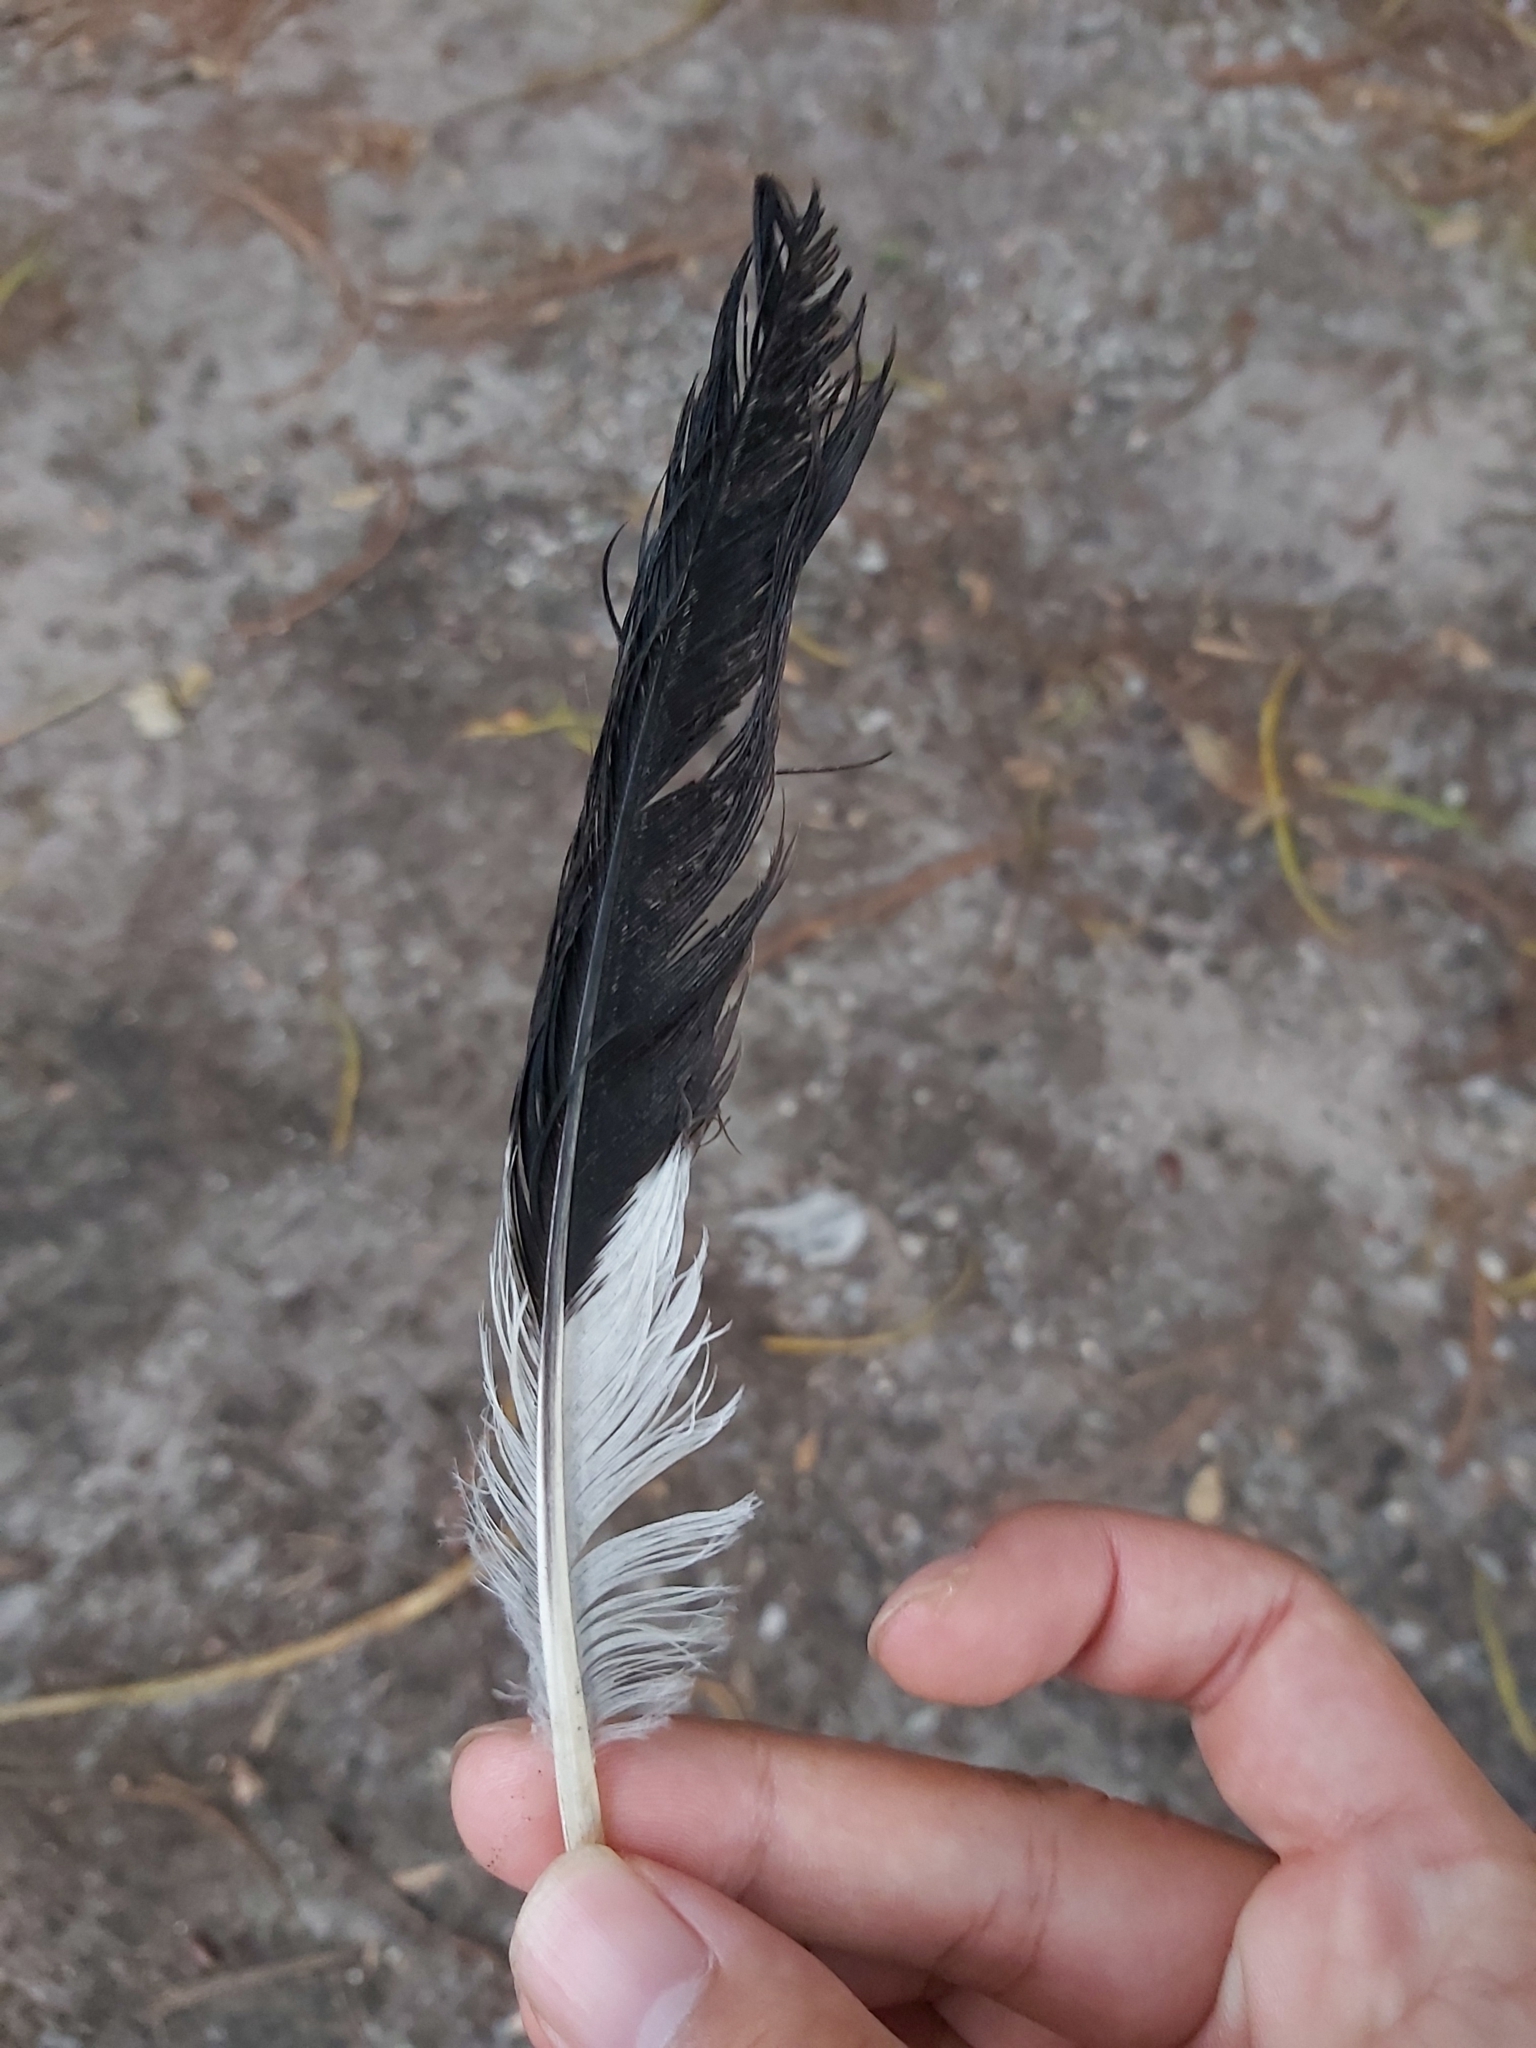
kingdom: Animalia
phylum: Chordata
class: Aves
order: Passeriformes
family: Cracticidae
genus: Strepera
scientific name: Strepera graculina
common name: Pied currawong
